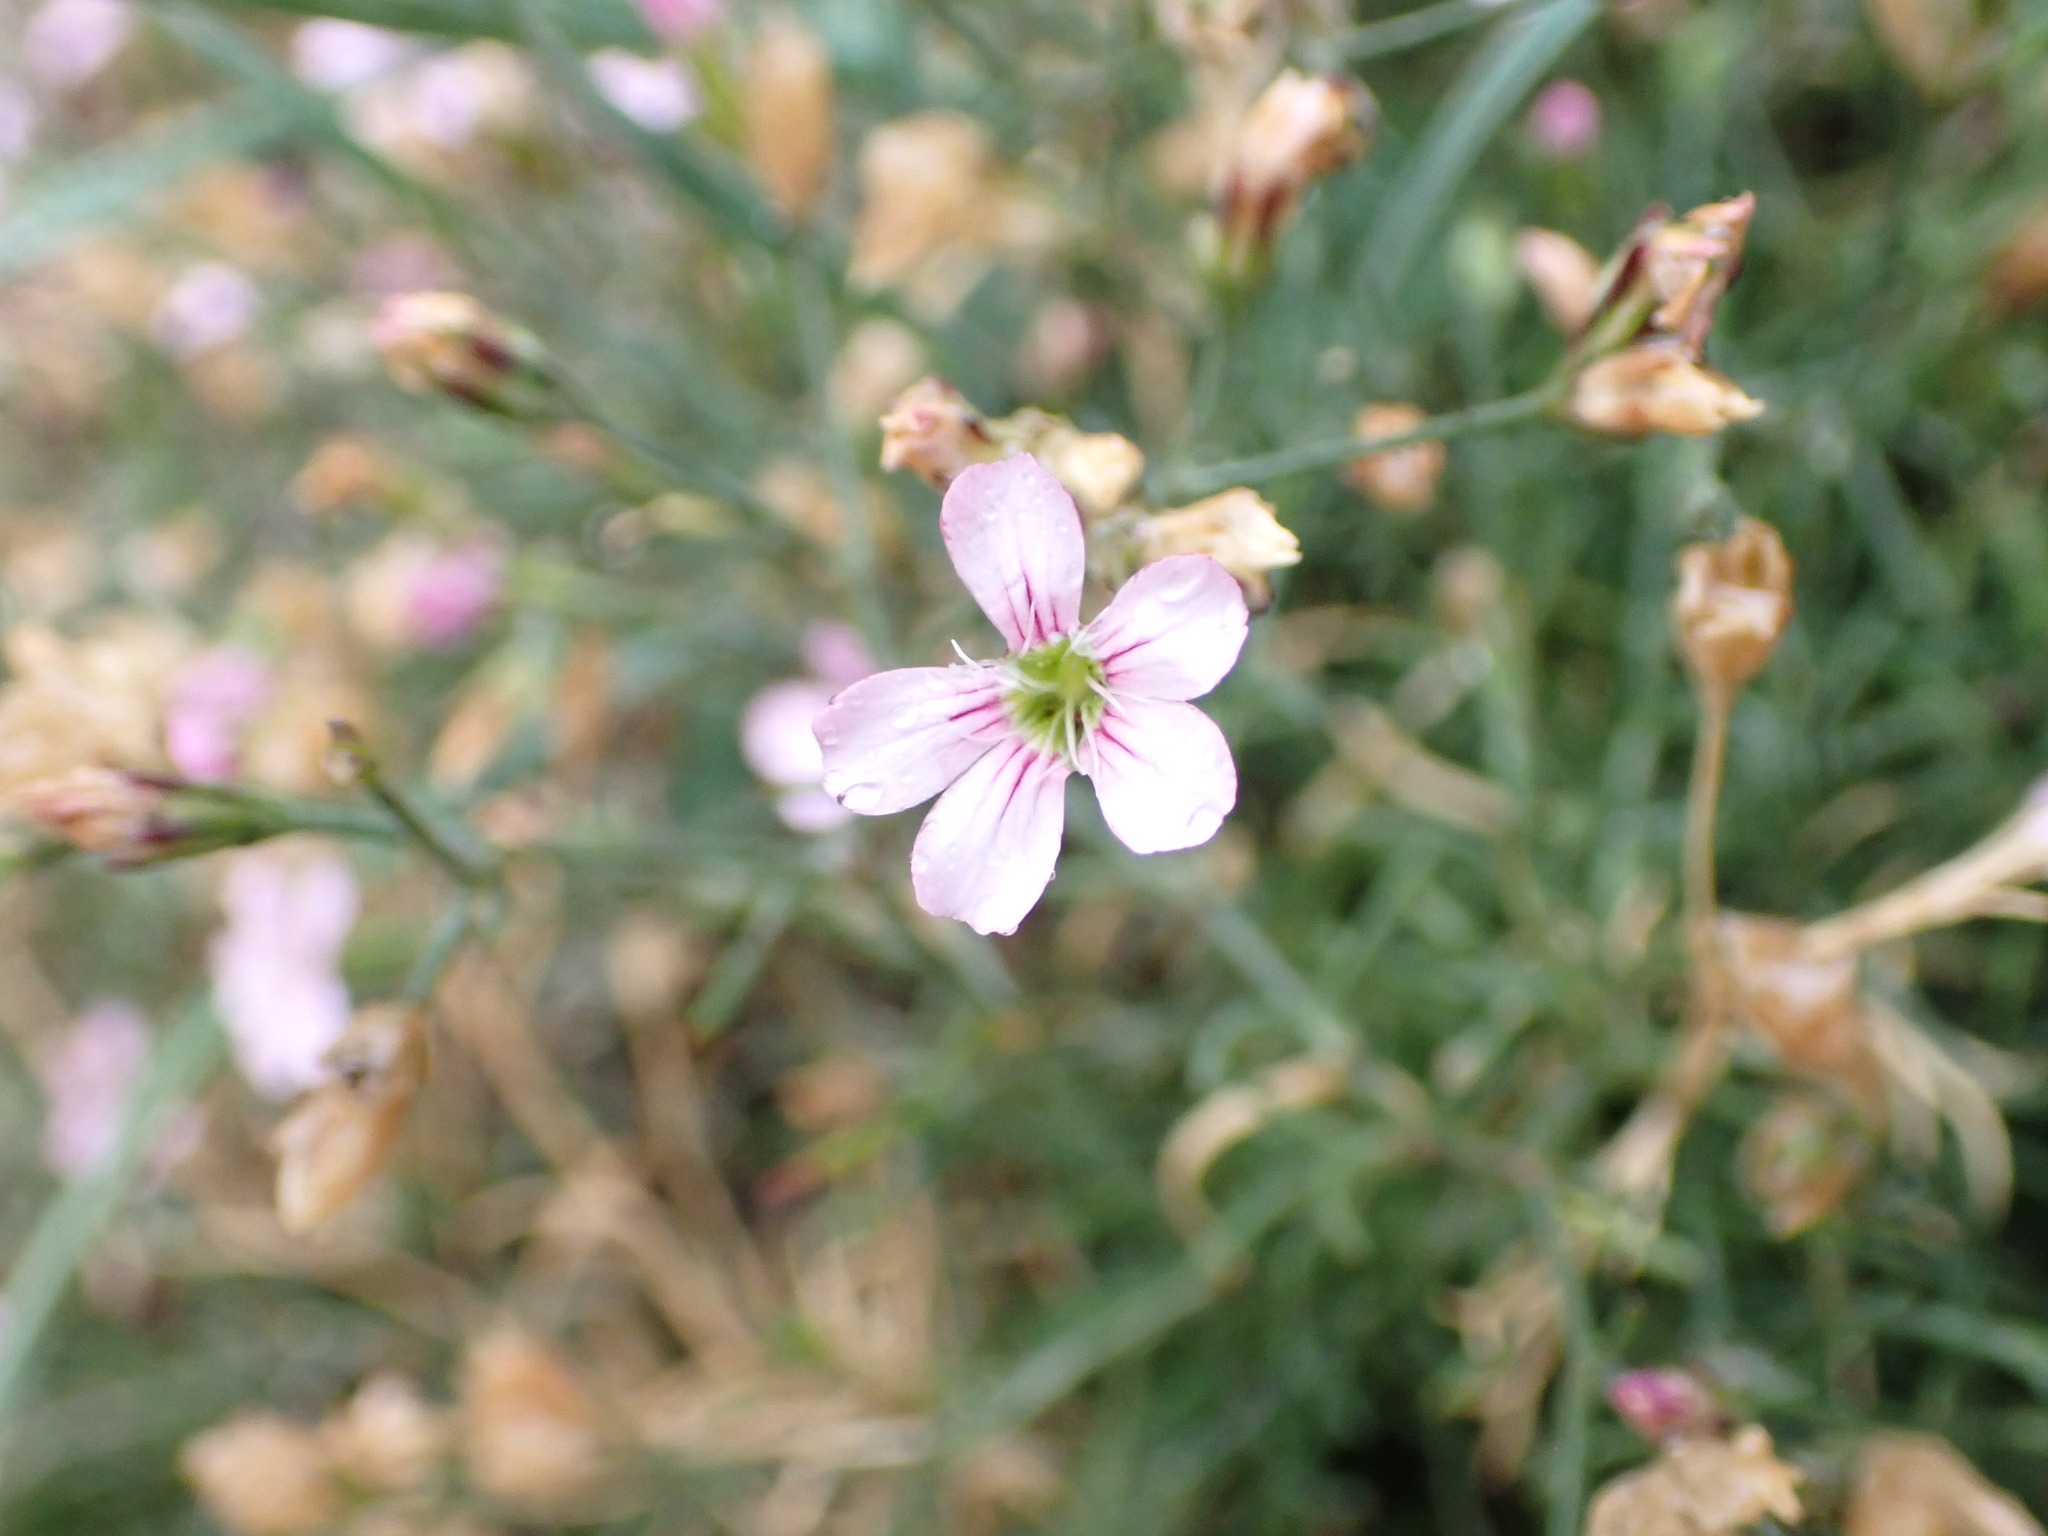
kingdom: Plantae
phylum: Tracheophyta
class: Magnoliopsida
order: Caryophyllales
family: Caryophyllaceae
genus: Petrorhagia
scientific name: Petrorhagia saxifraga
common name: Tunicflower
